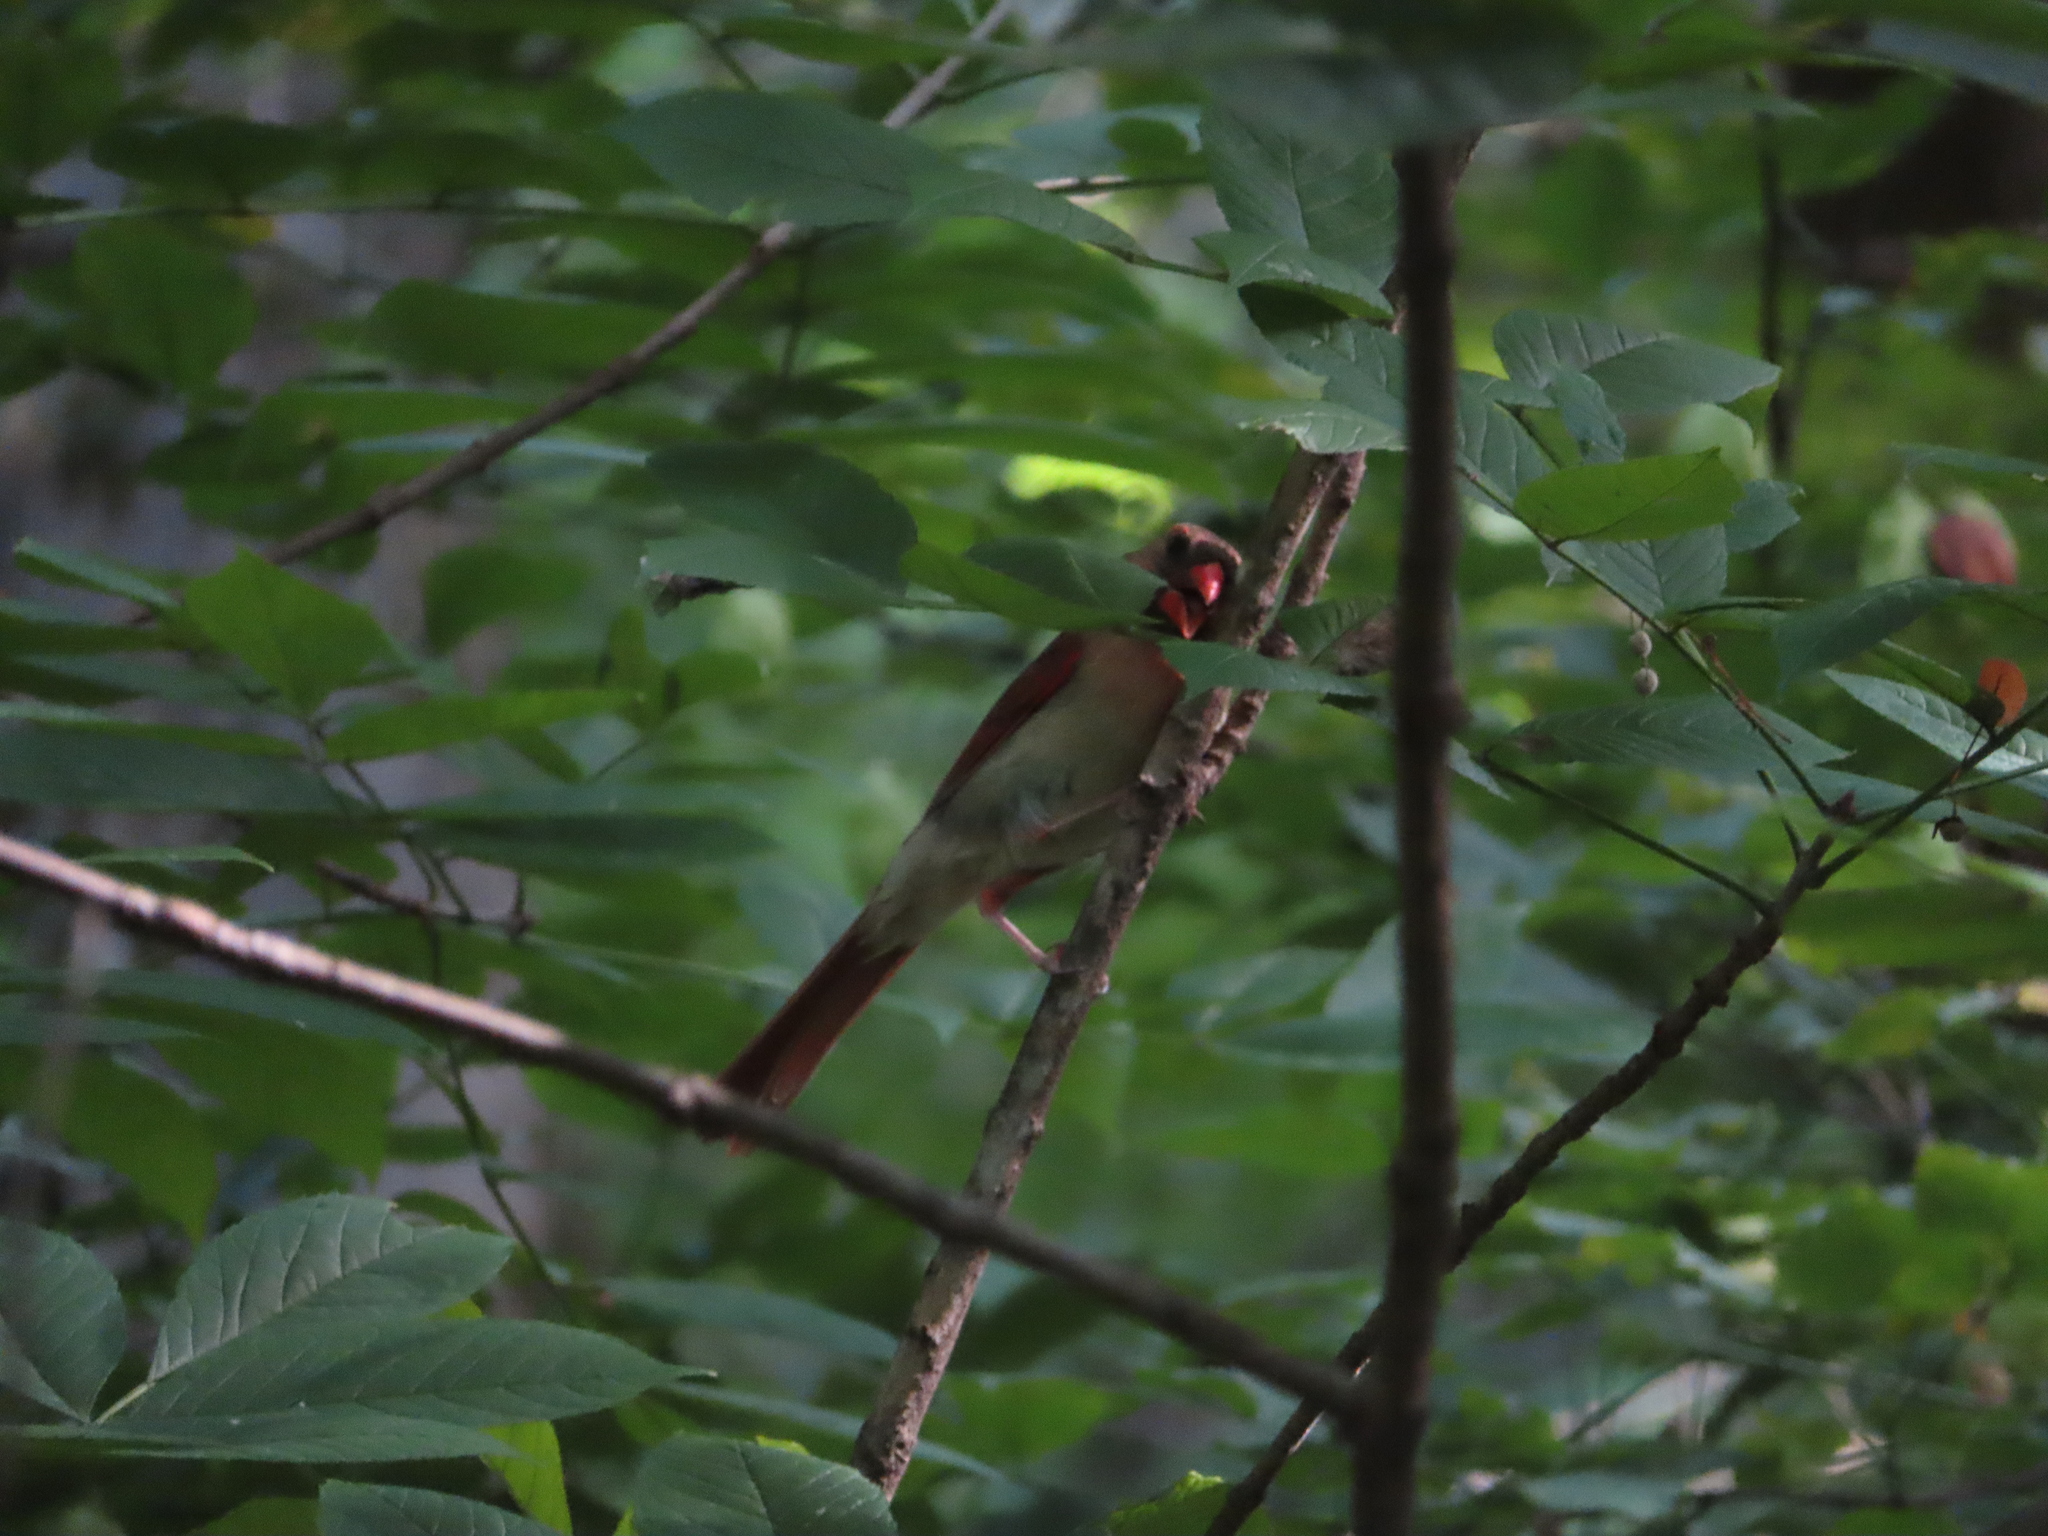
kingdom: Animalia
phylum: Chordata
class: Aves
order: Passeriformes
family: Cardinalidae
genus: Cardinalis
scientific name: Cardinalis cardinalis
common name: Northern cardinal
